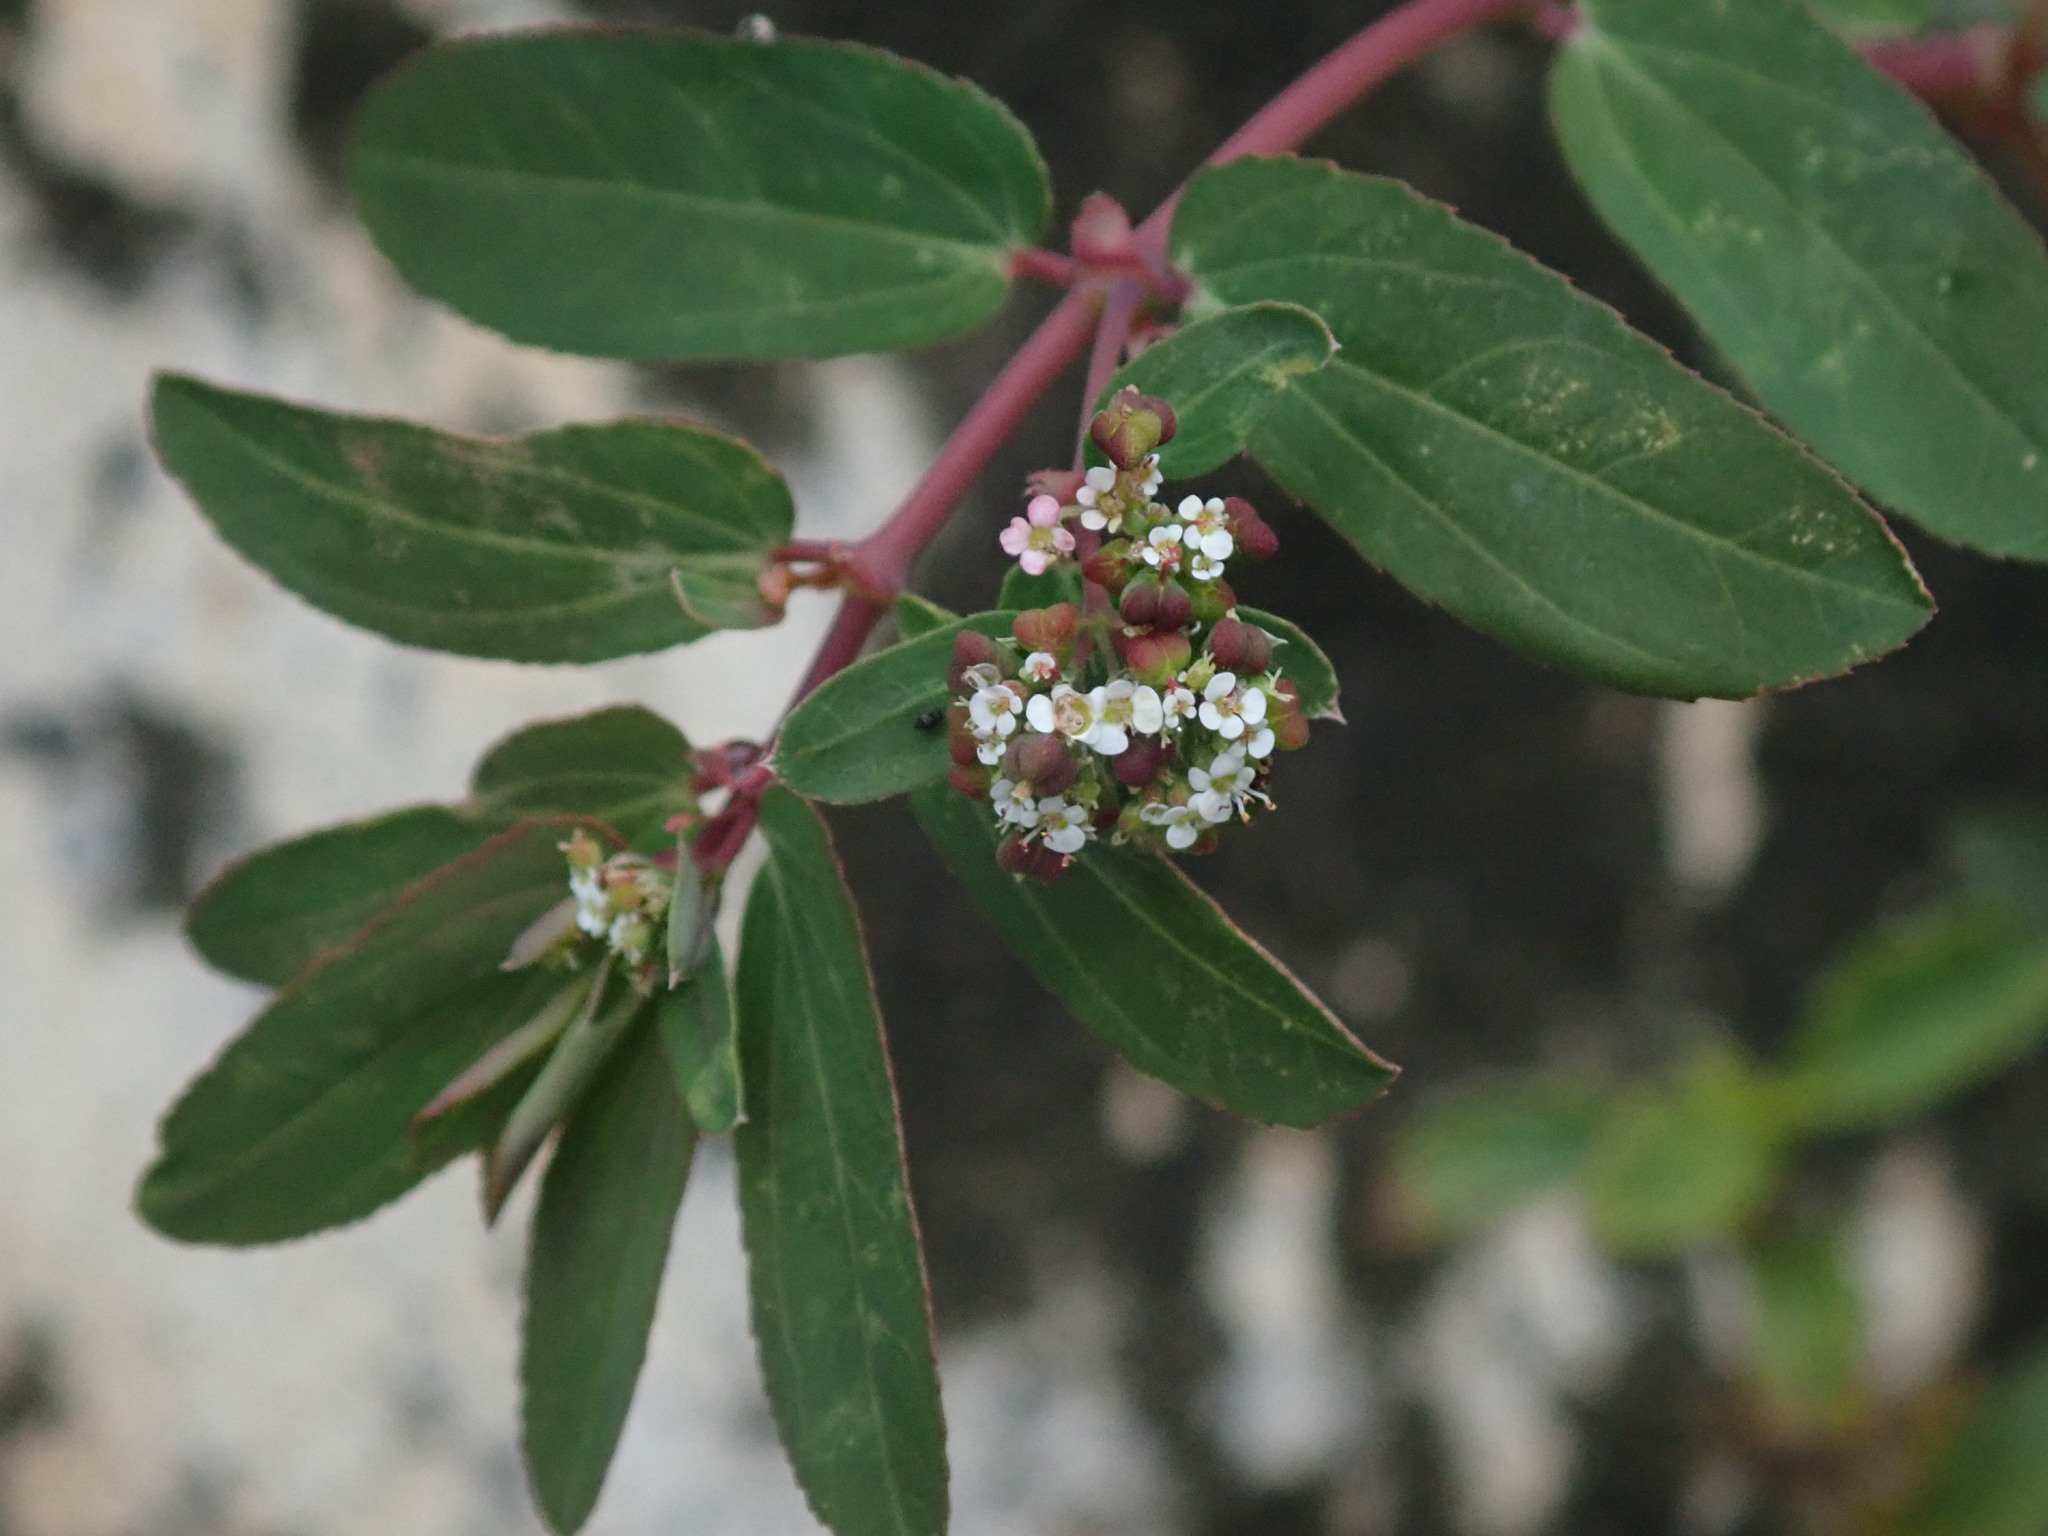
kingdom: Plantae
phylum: Tracheophyta
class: Magnoliopsida
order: Malpighiales
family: Euphorbiaceae
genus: Euphorbia
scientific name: Euphorbia hypericifolia
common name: Graceful sandmat
